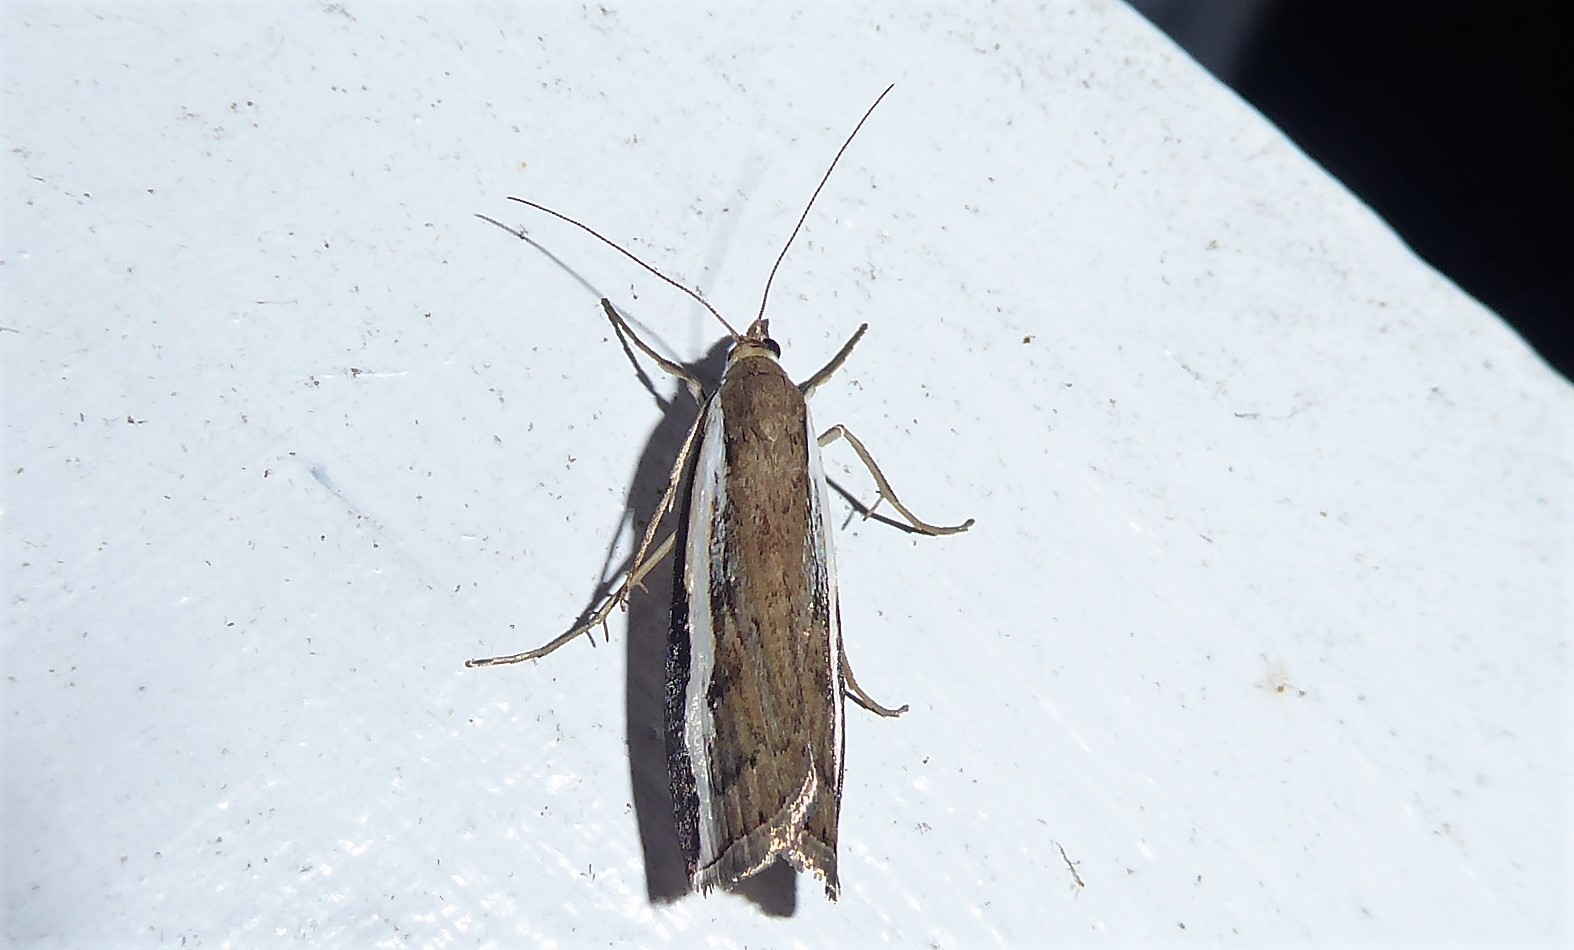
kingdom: Animalia
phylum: Arthropoda
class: Insecta
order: Lepidoptera
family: Crambidae
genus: Orocrambus
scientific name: Orocrambus flexuosellus
